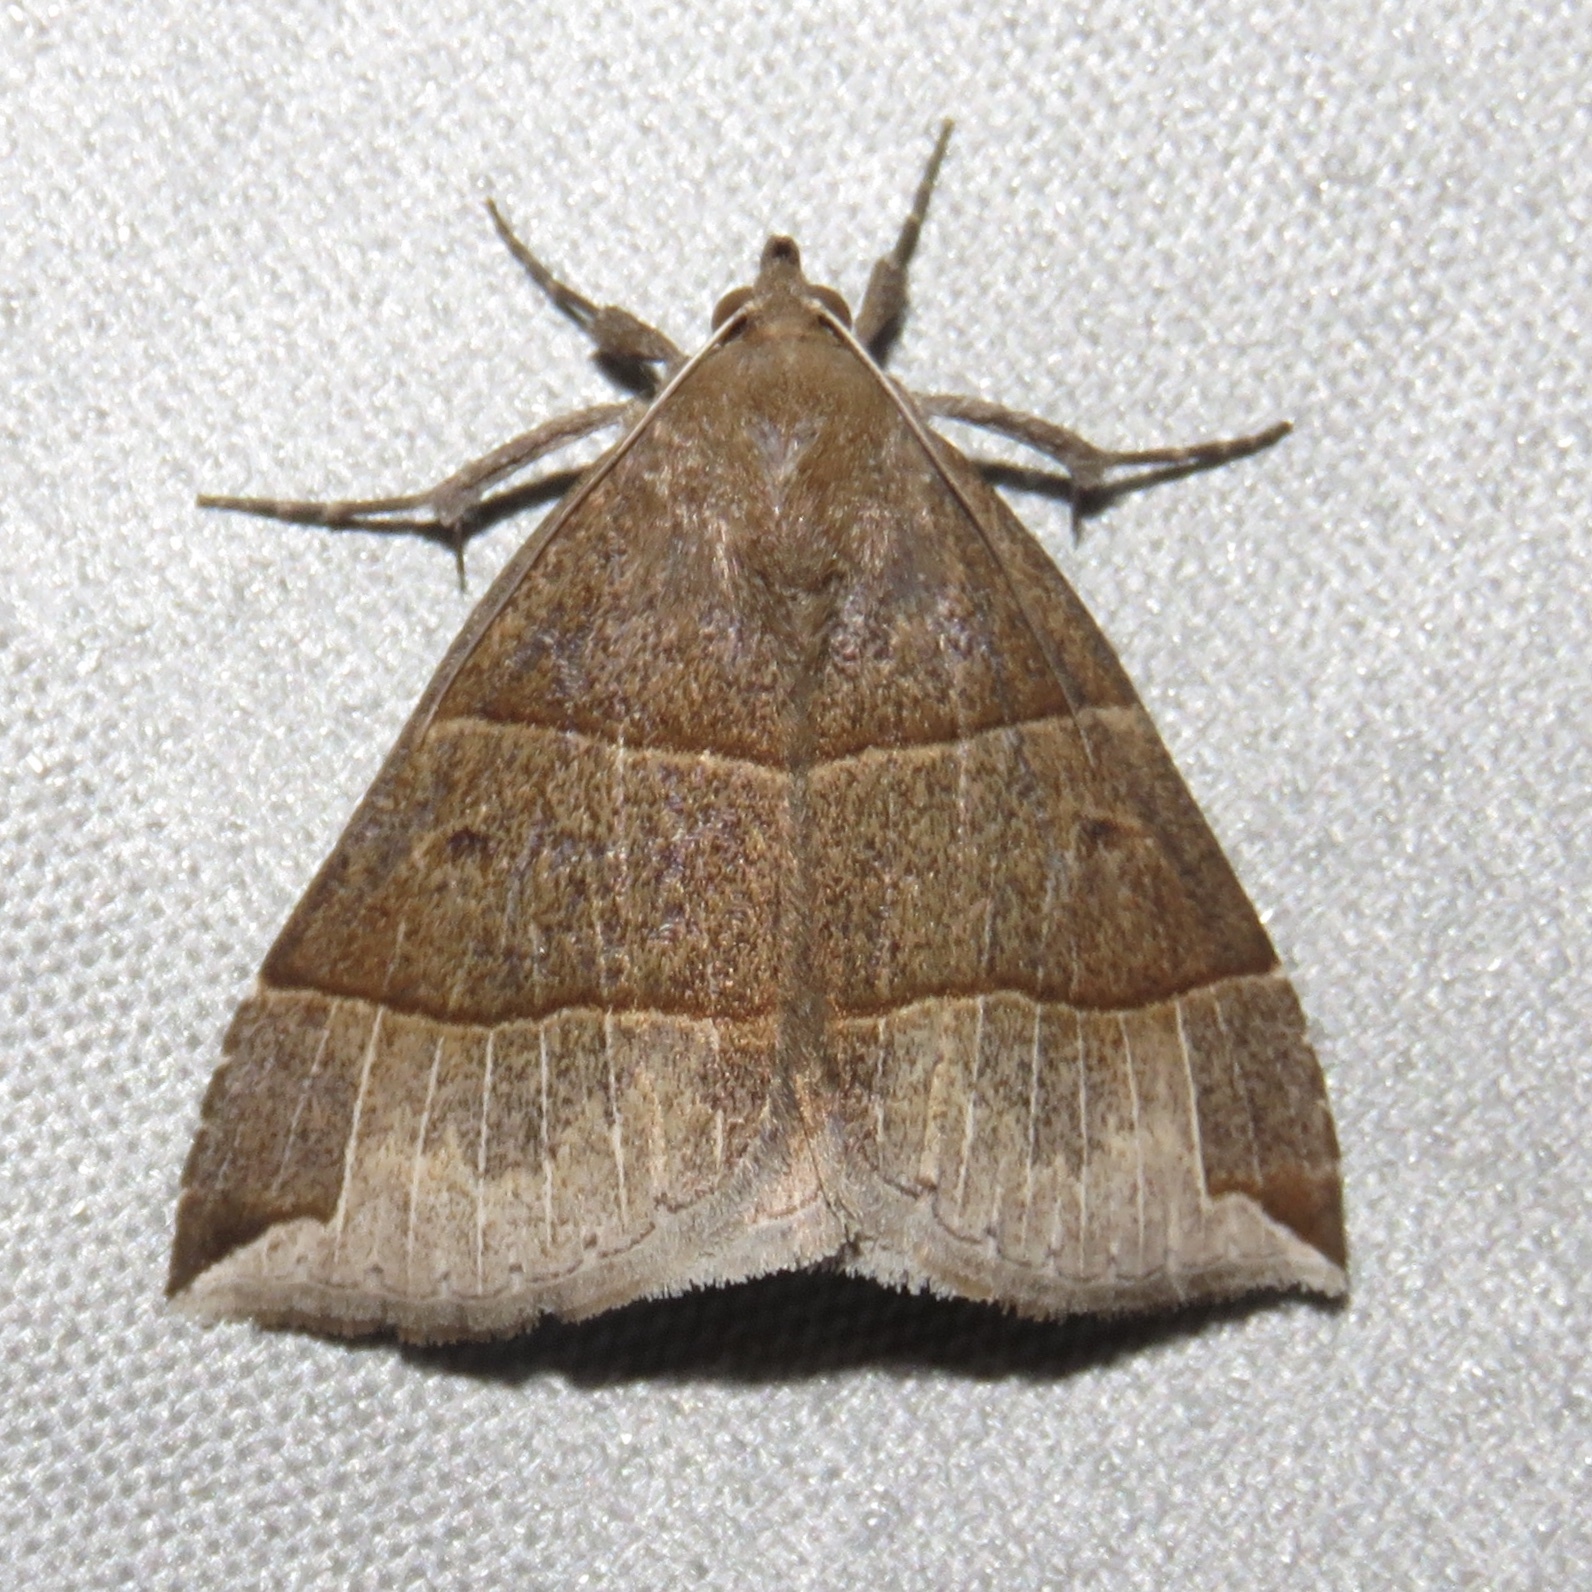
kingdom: Animalia
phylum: Arthropoda
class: Insecta
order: Lepidoptera
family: Erebidae
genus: Parallelia
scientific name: Parallelia bistriaris
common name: Maple looper moth
